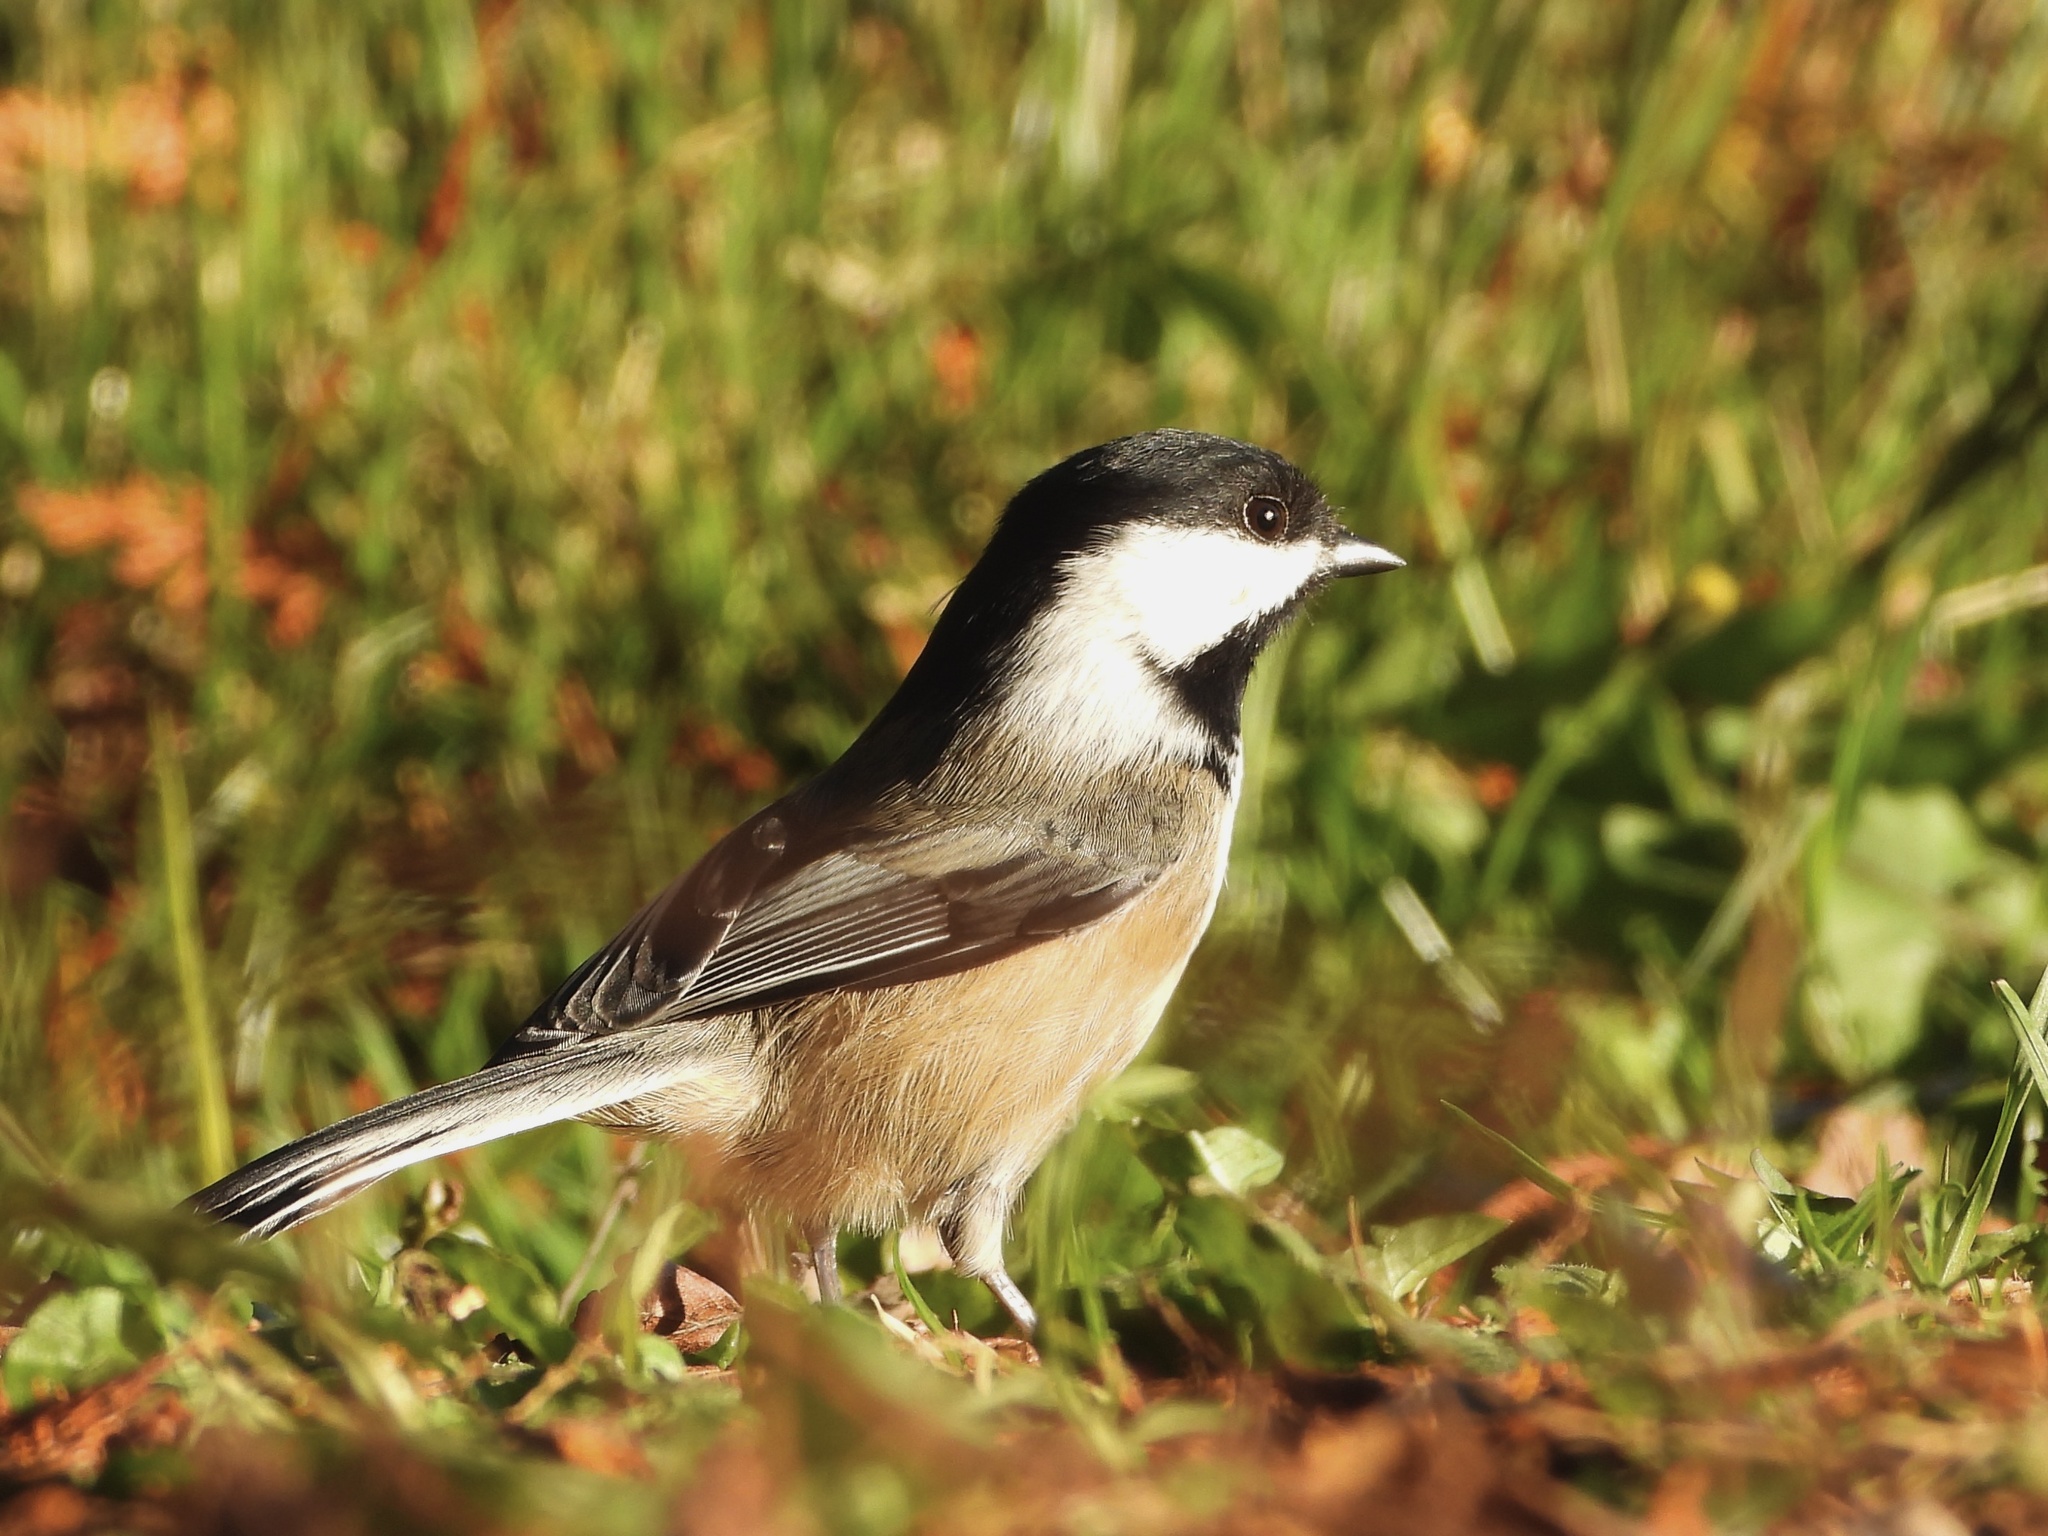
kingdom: Animalia
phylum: Chordata
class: Aves
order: Passeriformes
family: Paridae
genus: Poecile
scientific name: Poecile atricapillus
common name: Black-capped chickadee
